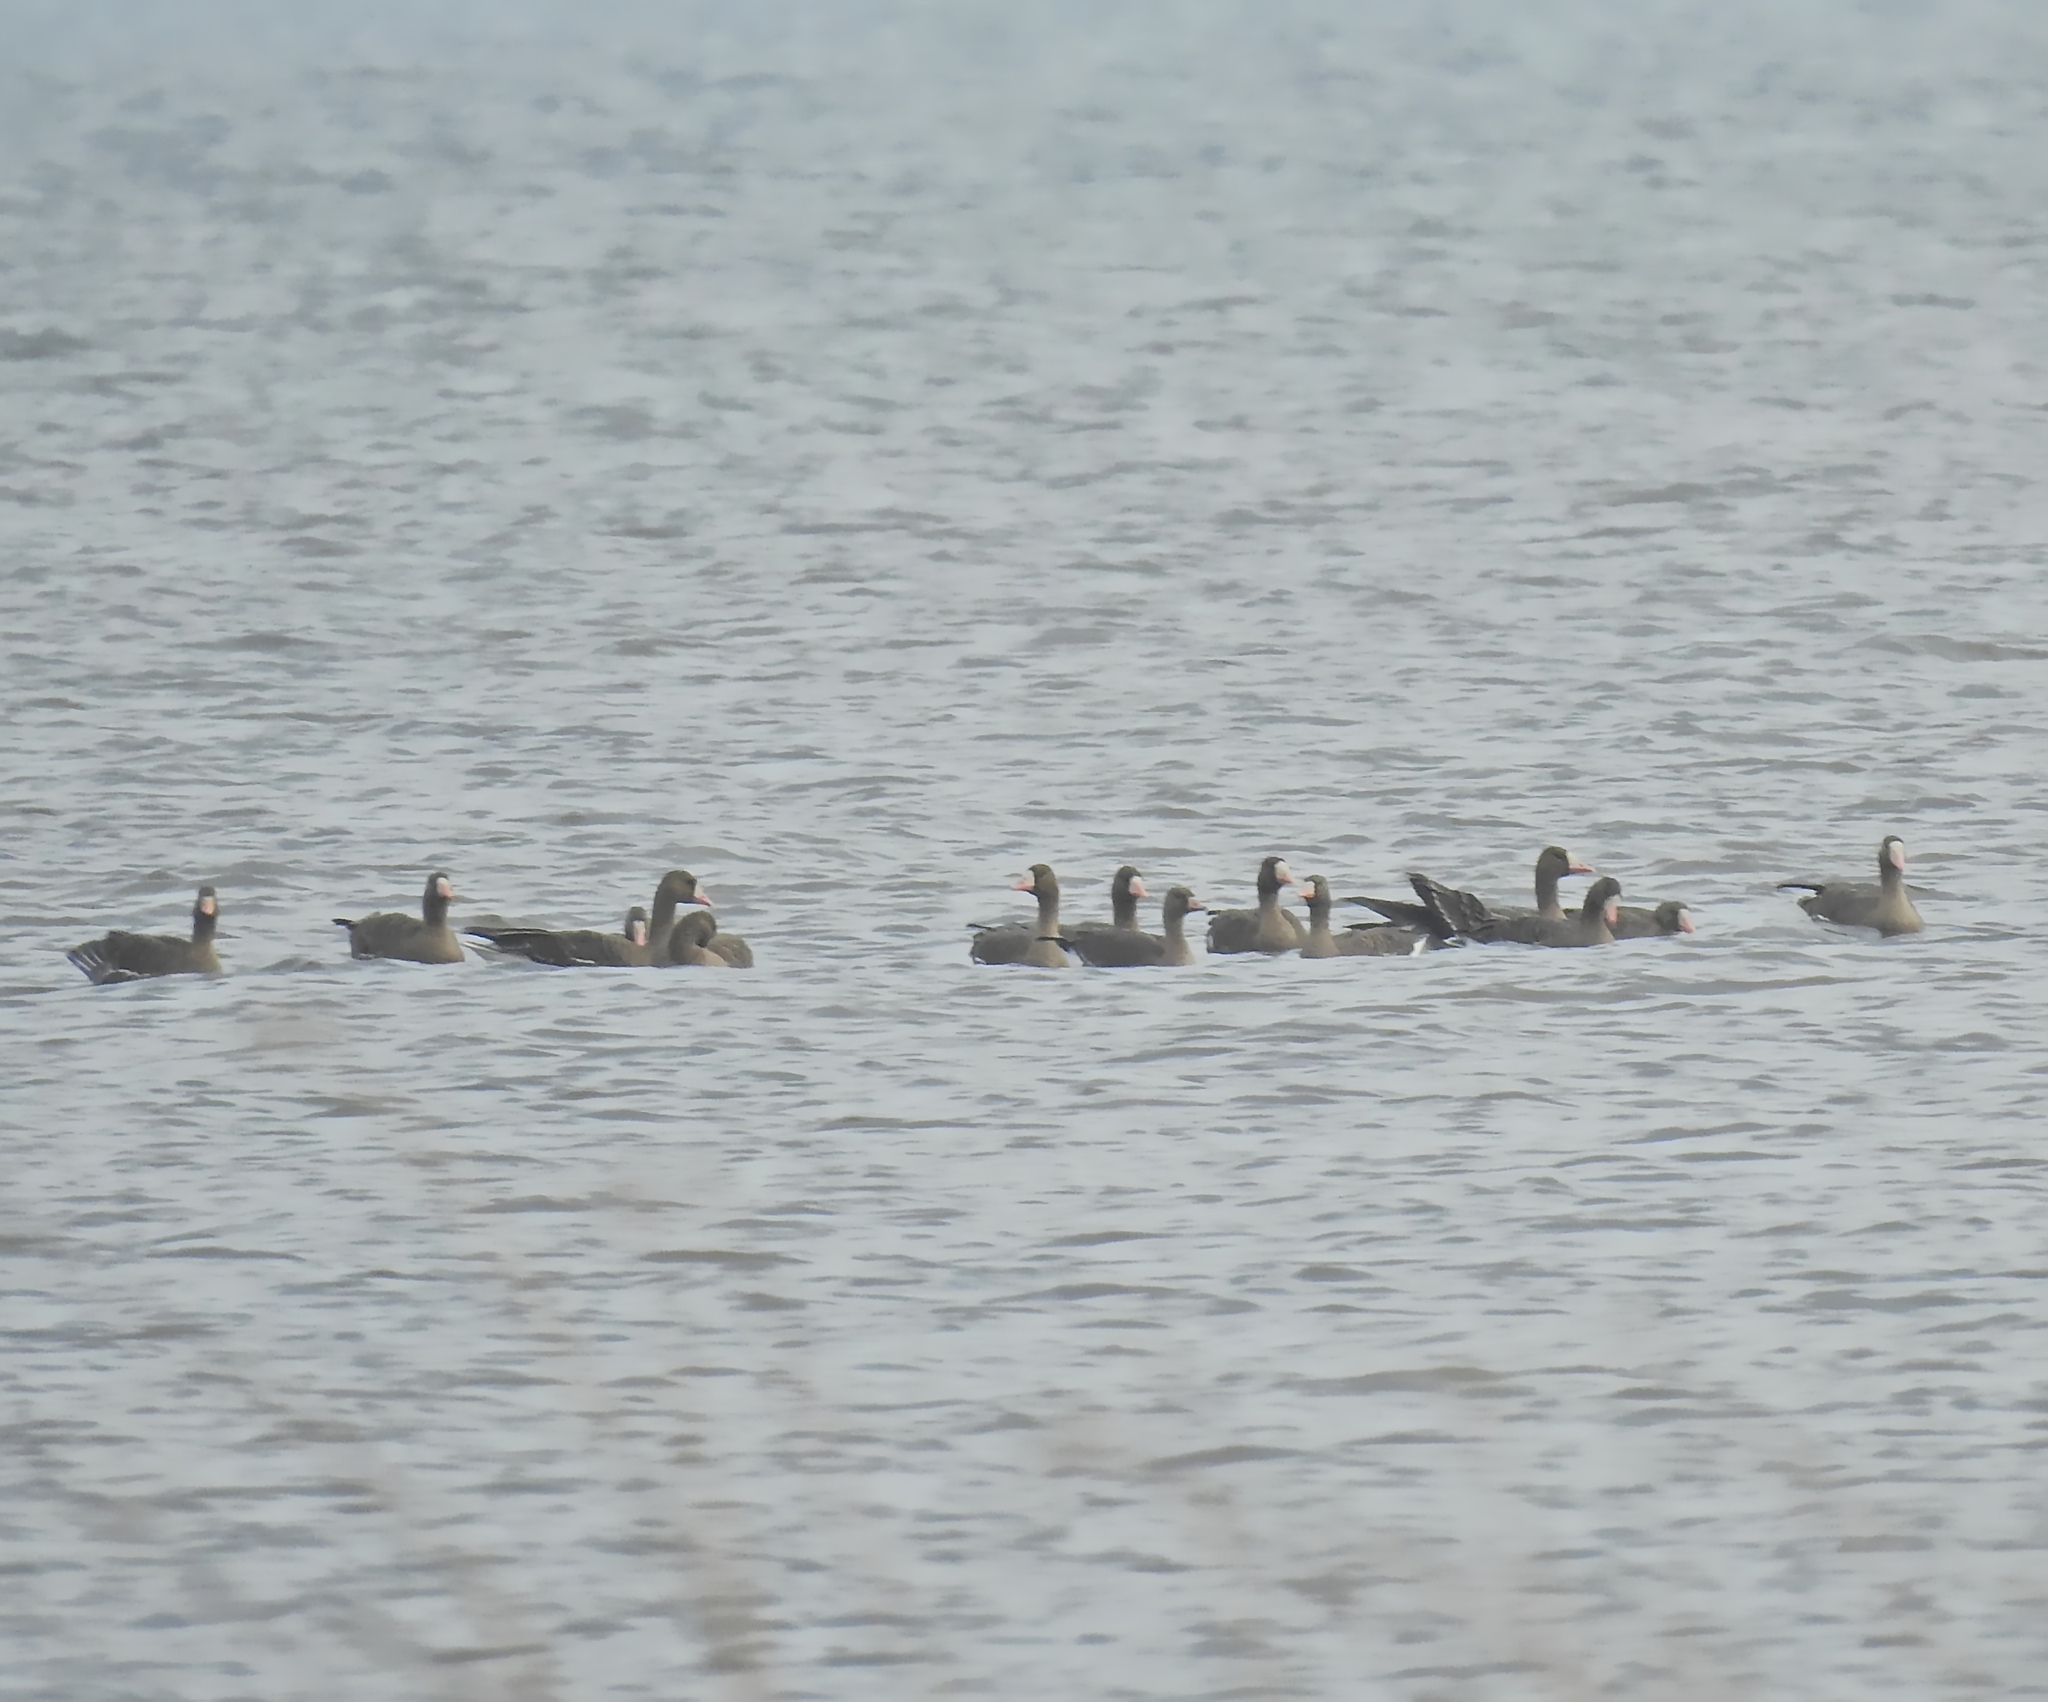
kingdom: Animalia
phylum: Chordata
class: Aves
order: Anseriformes
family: Anatidae
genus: Anser
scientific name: Anser albifrons
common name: Greater white-fronted goose
